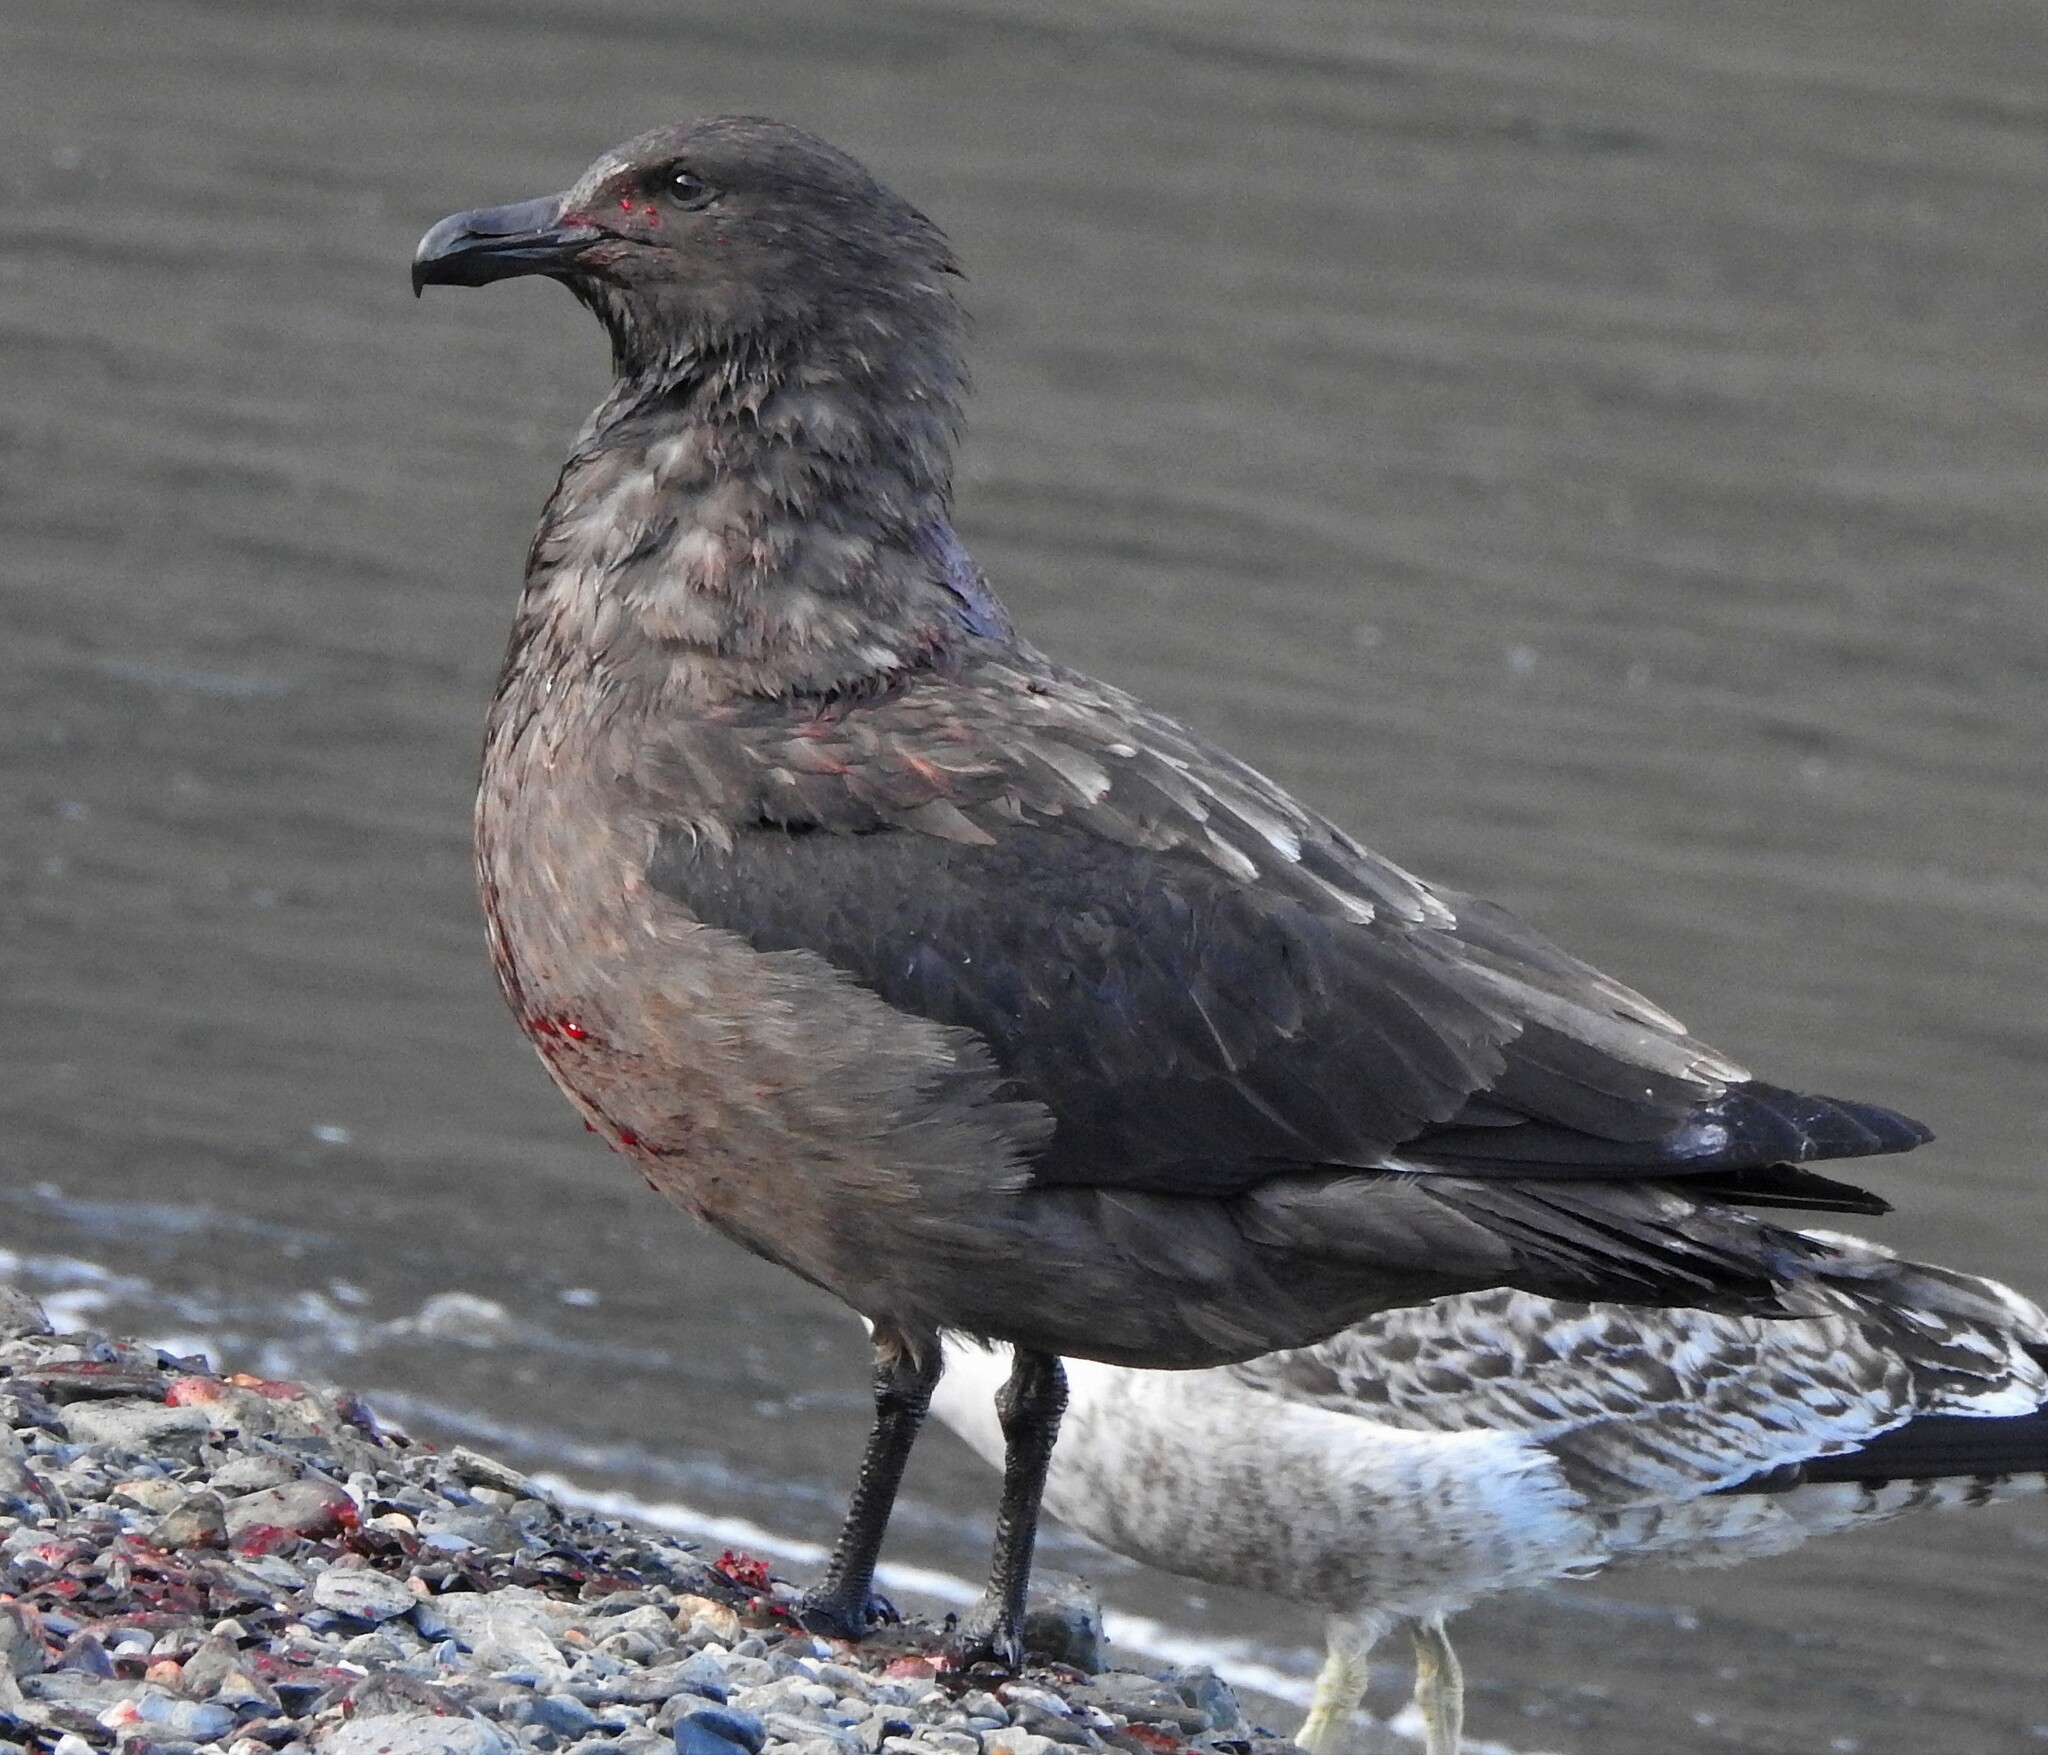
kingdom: Animalia
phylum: Chordata
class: Aves
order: Charadriiformes
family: Stercorariidae
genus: Stercorarius
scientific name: Stercorarius antarcticus
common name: Brown skua
